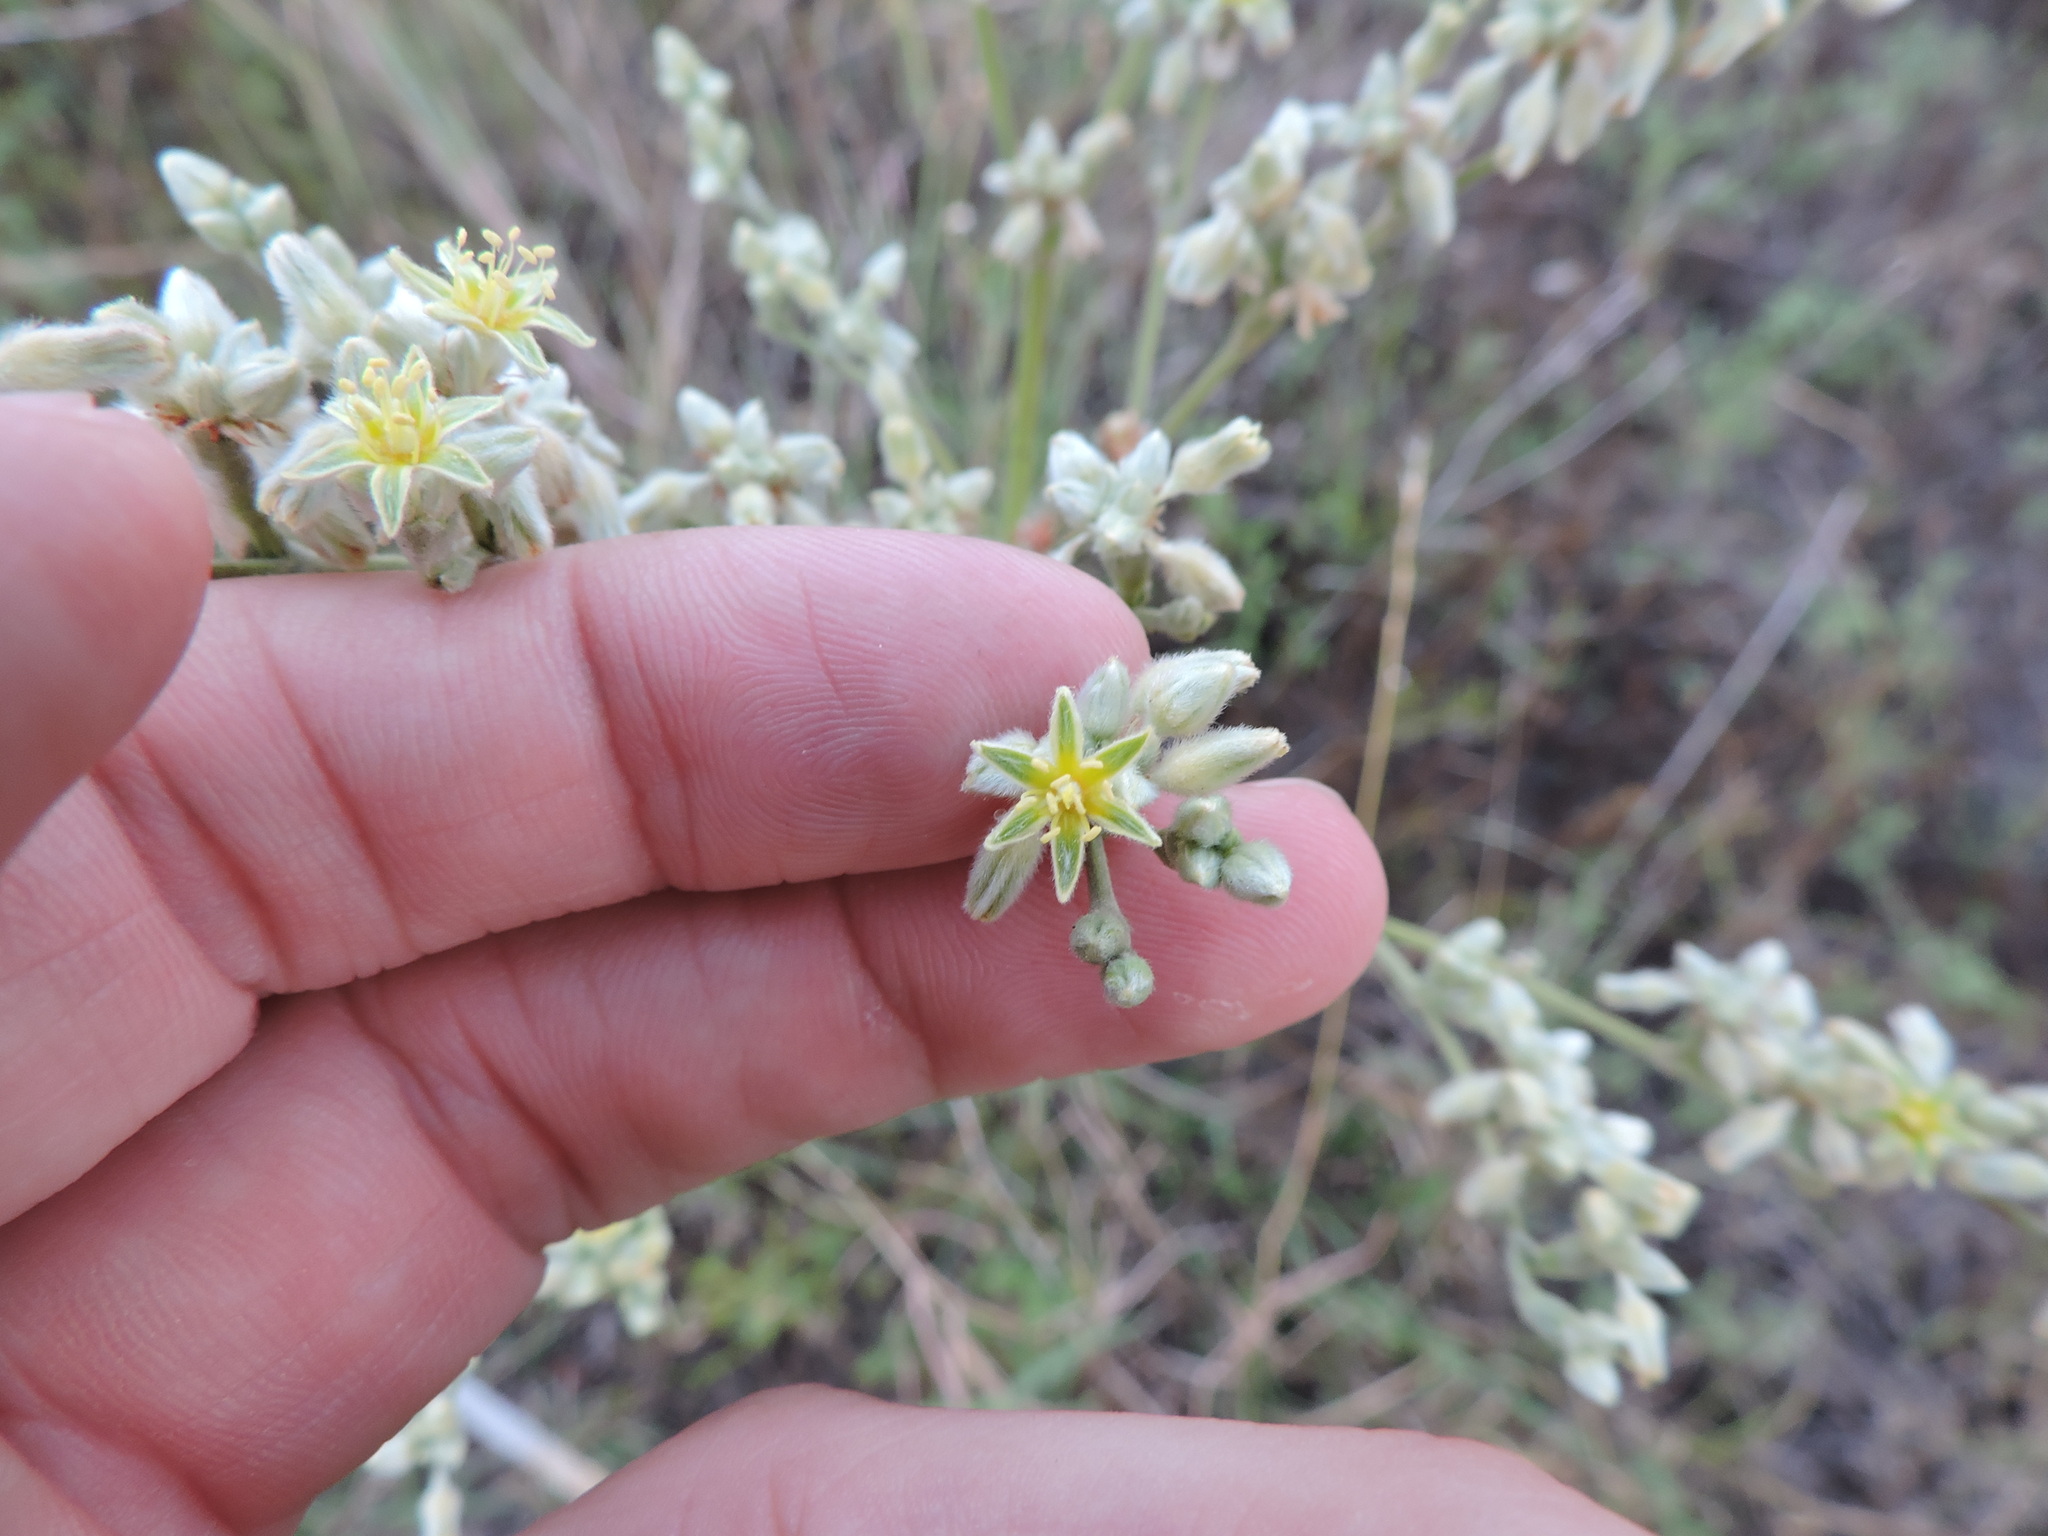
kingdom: Plantae
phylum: Tracheophyta
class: Magnoliopsida
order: Caryophyllales
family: Polygonaceae
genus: Eriogonum
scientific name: Eriogonum longifolium
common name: Longleaf wild buckwheat
